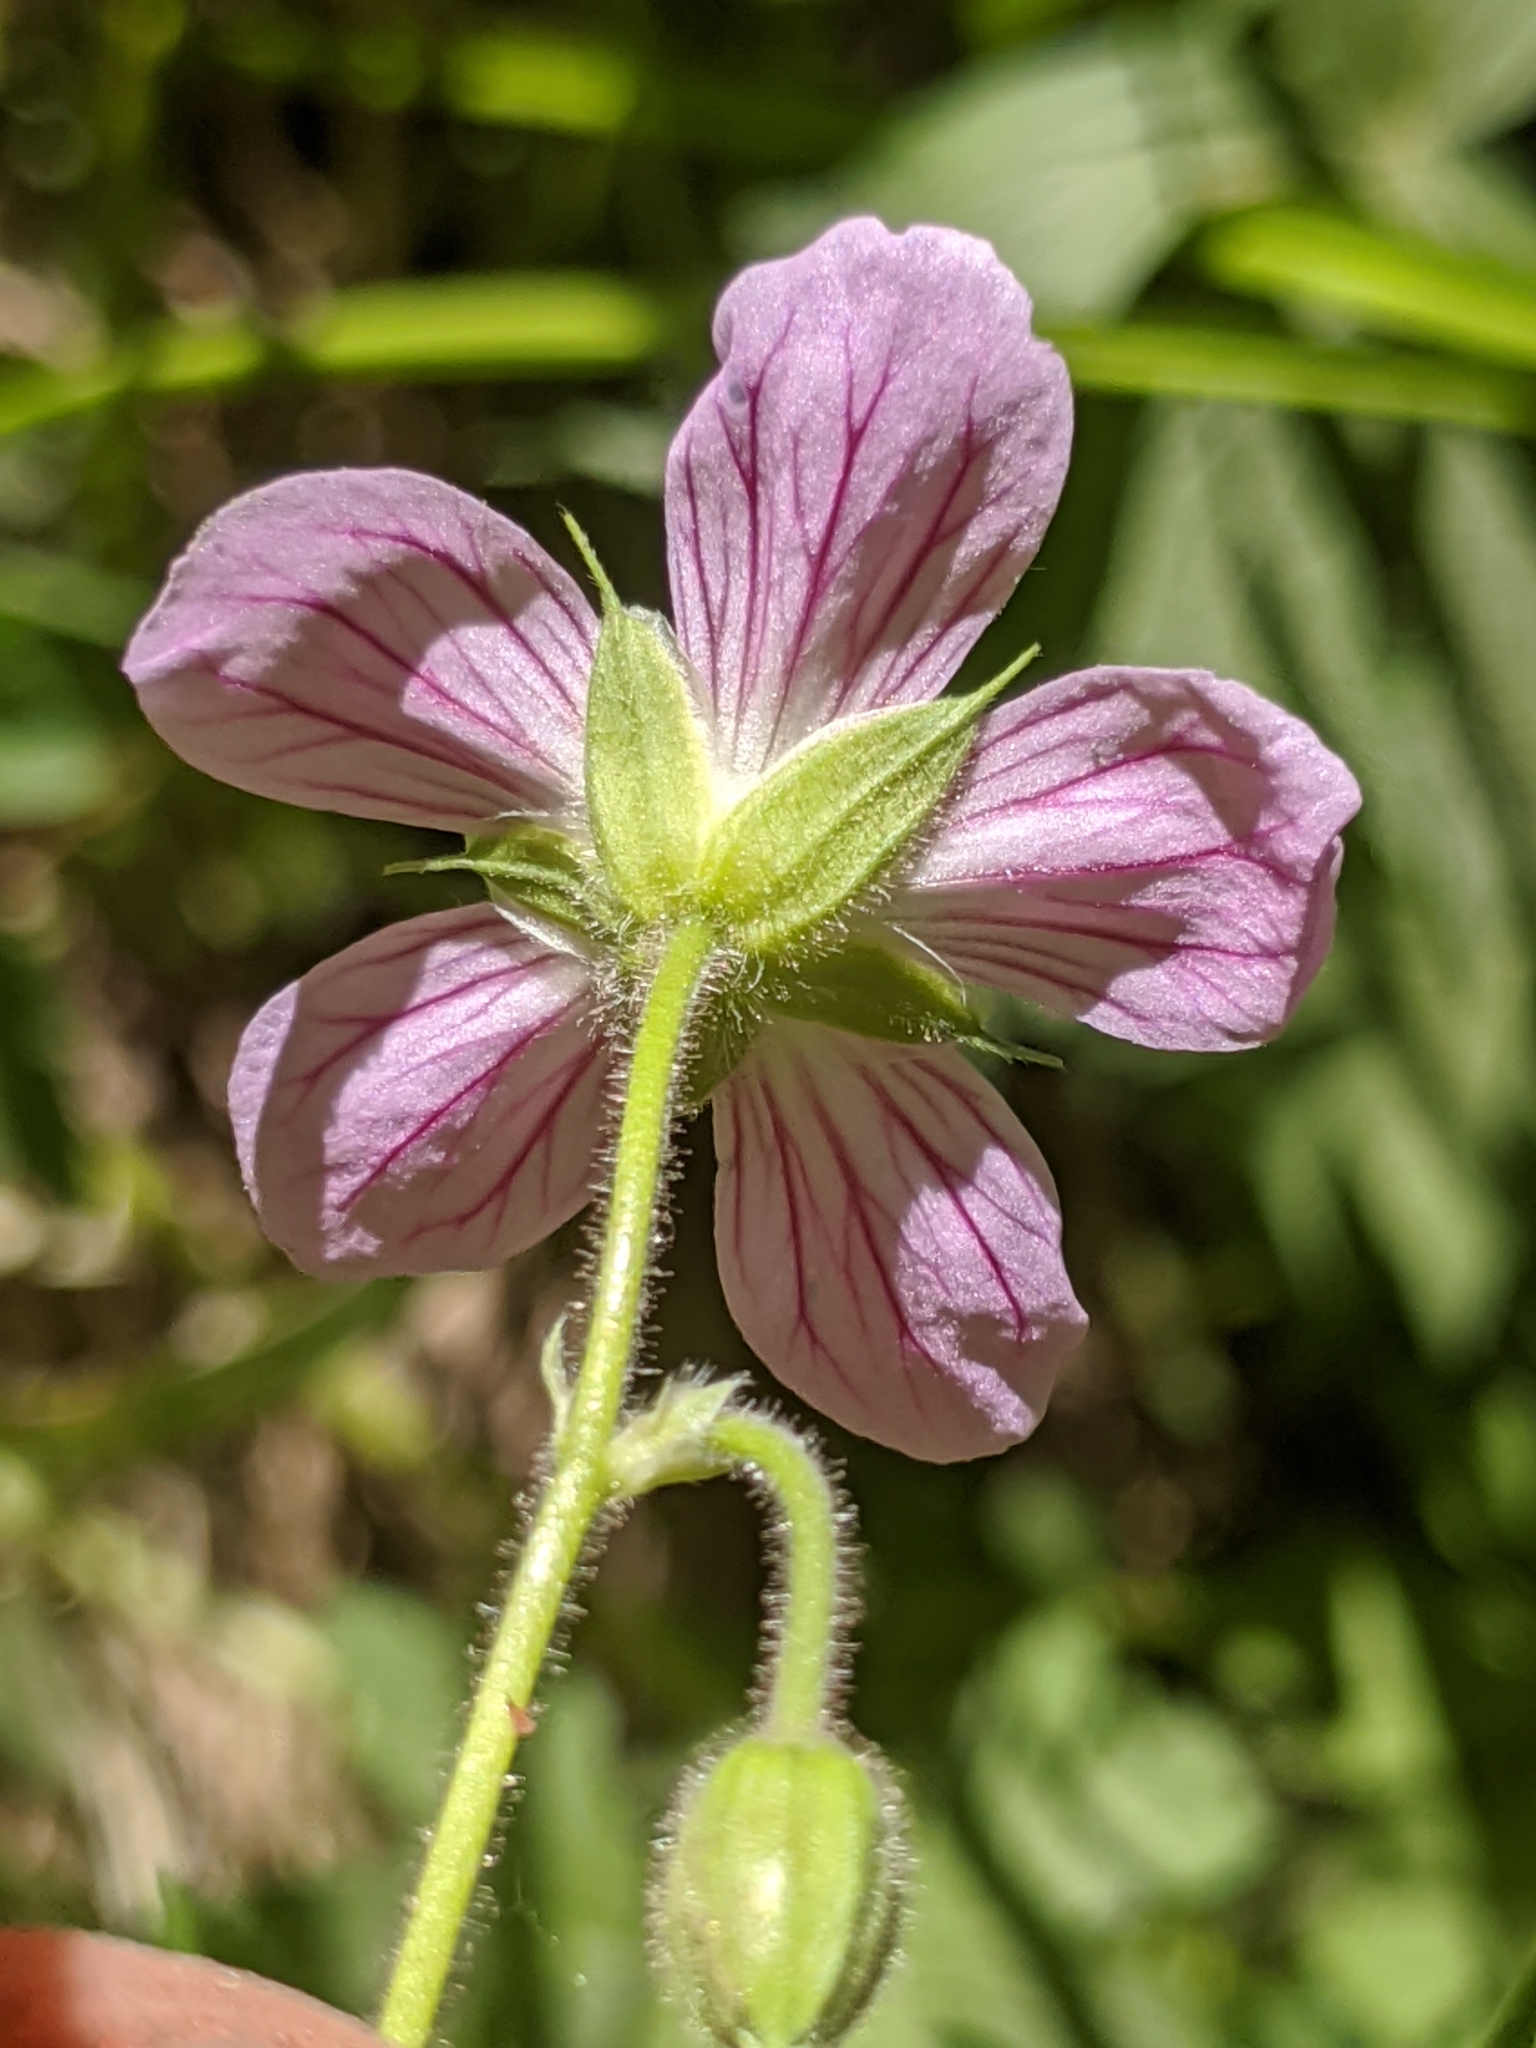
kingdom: Plantae
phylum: Tracheophyta
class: Magnoliopsida
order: Geraniales
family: Geraniaceae
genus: Geranium
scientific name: Geranium californicum
